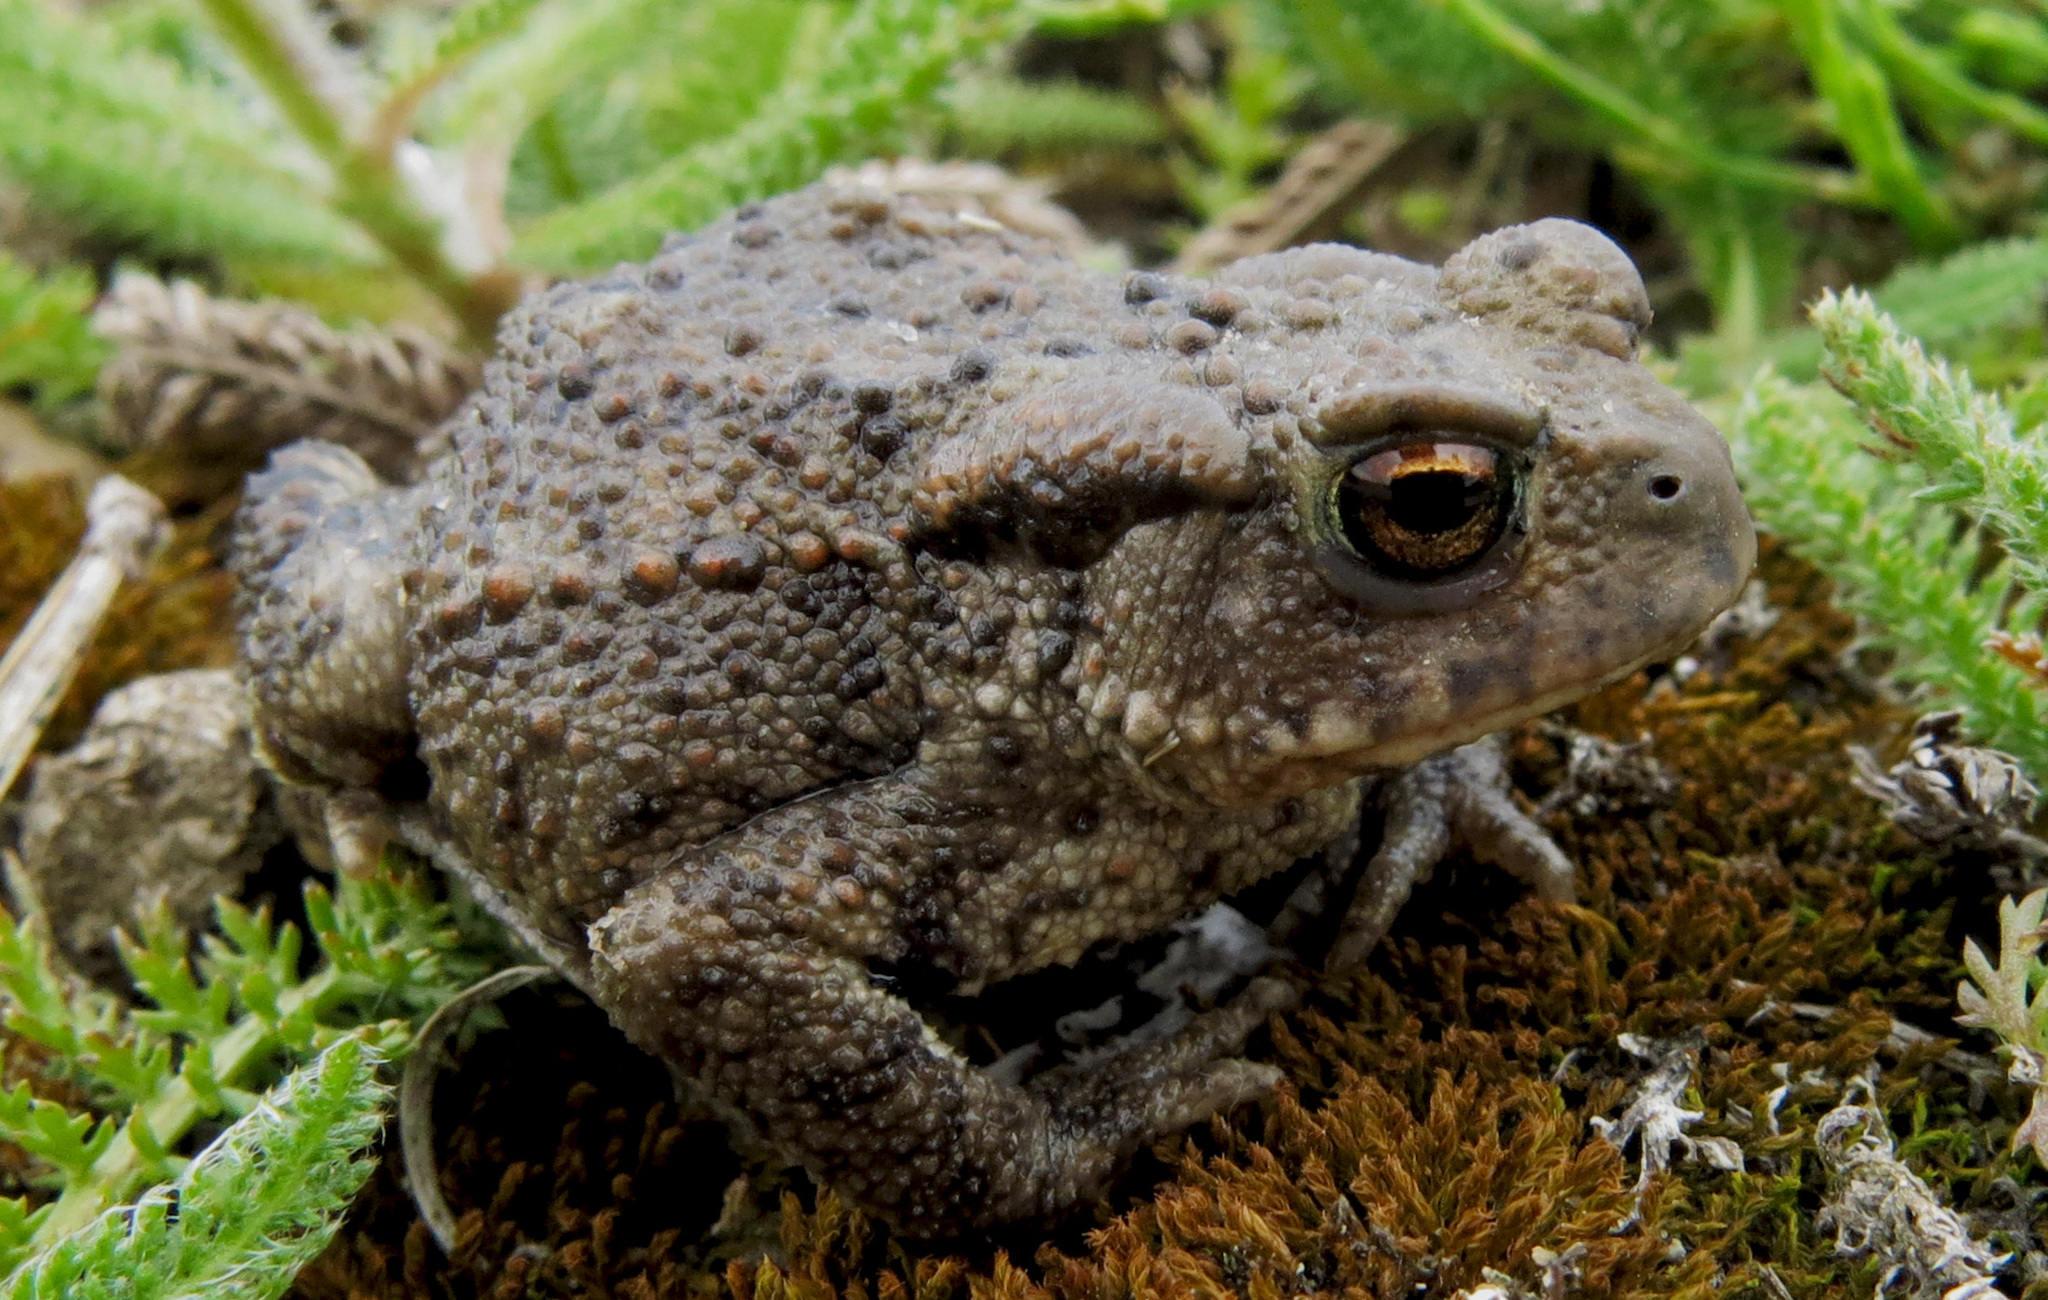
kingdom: Animalia
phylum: Chordata
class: Amphibia
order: Anura
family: Bufonidae
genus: Bufo
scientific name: Bufo bufo
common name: Common toad
